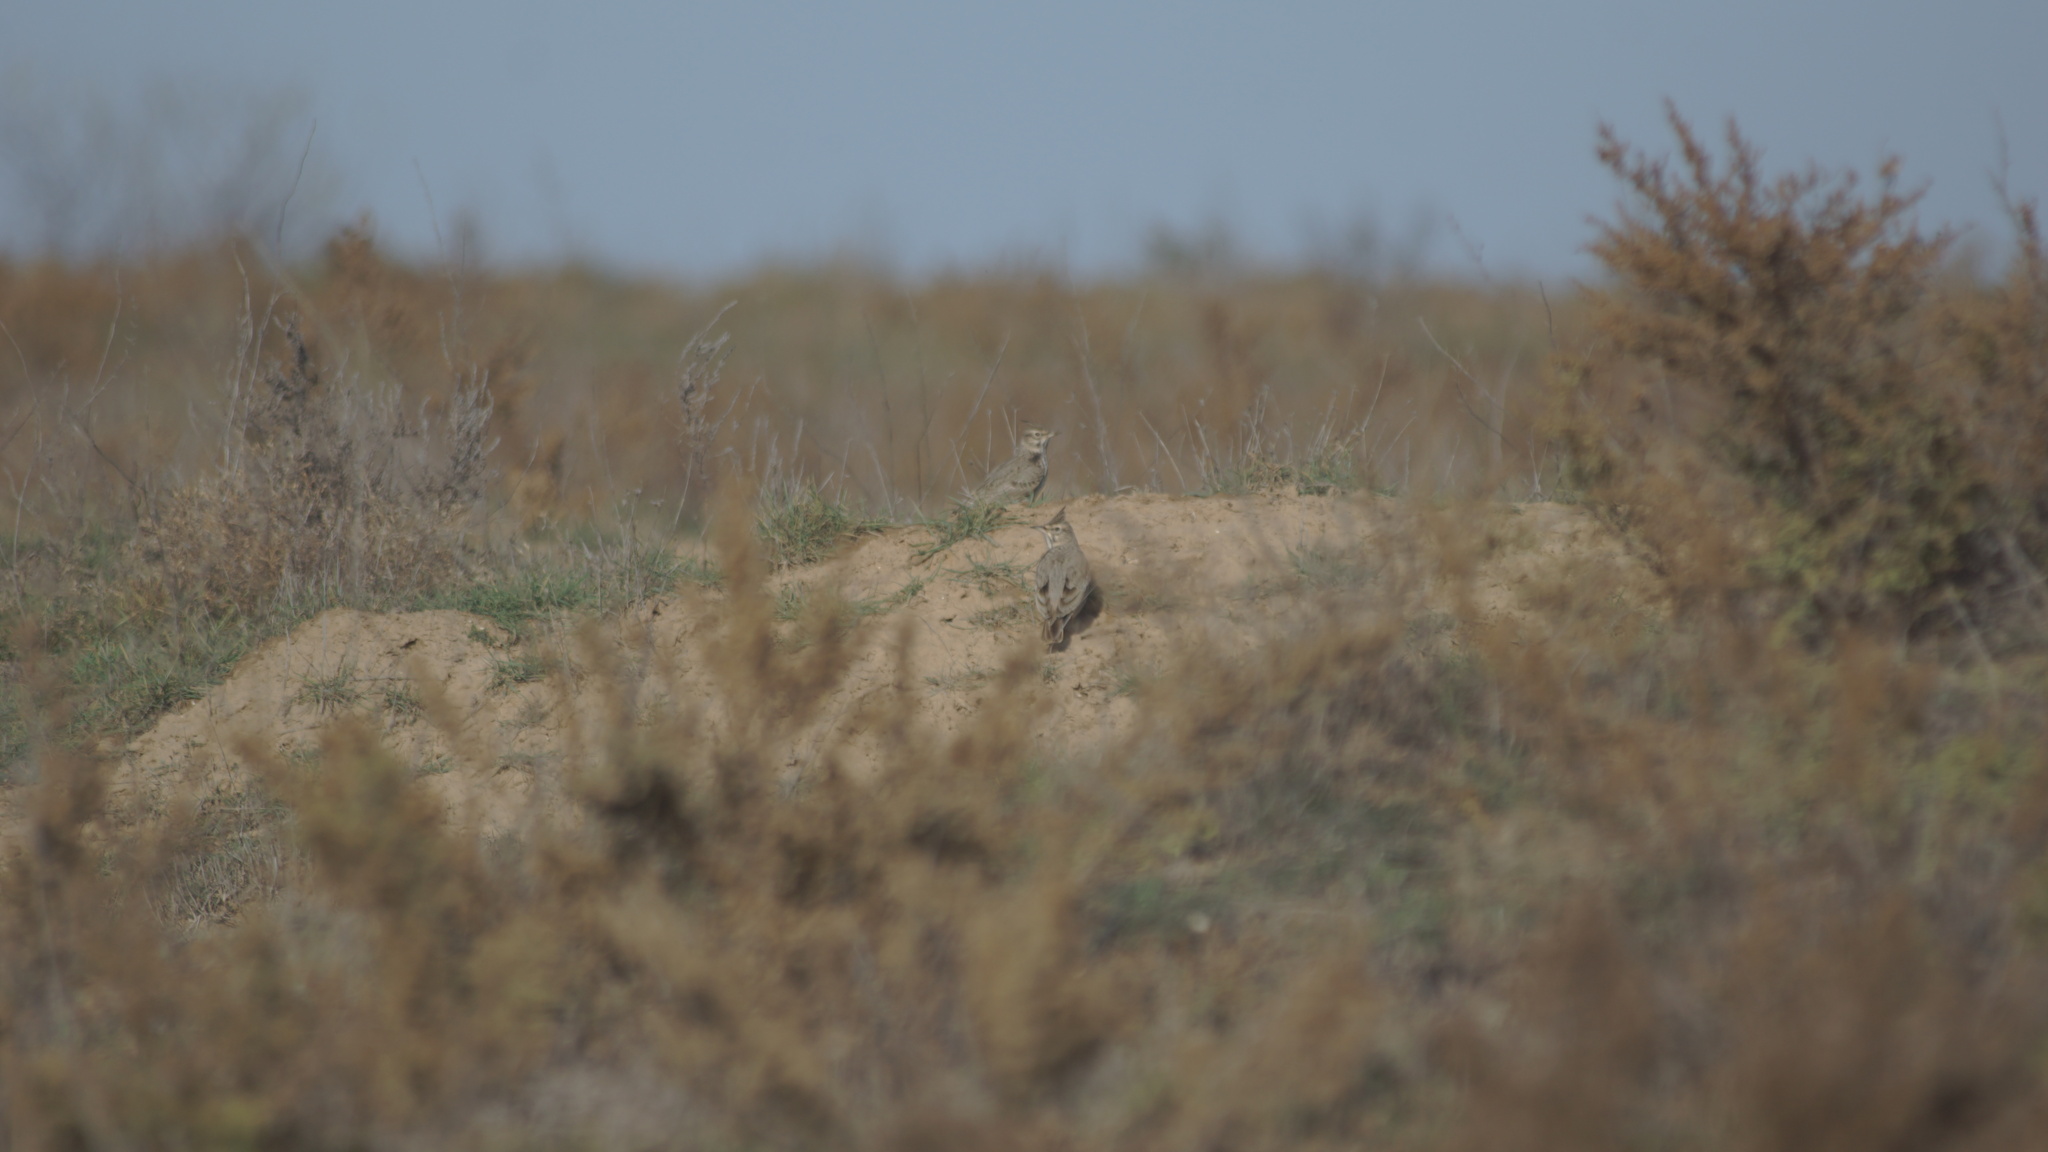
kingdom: Animalia
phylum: Chordata
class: Aves
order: Passeriformes
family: Alaudidae
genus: Galerida
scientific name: Galerida cristata
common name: Crested lark
